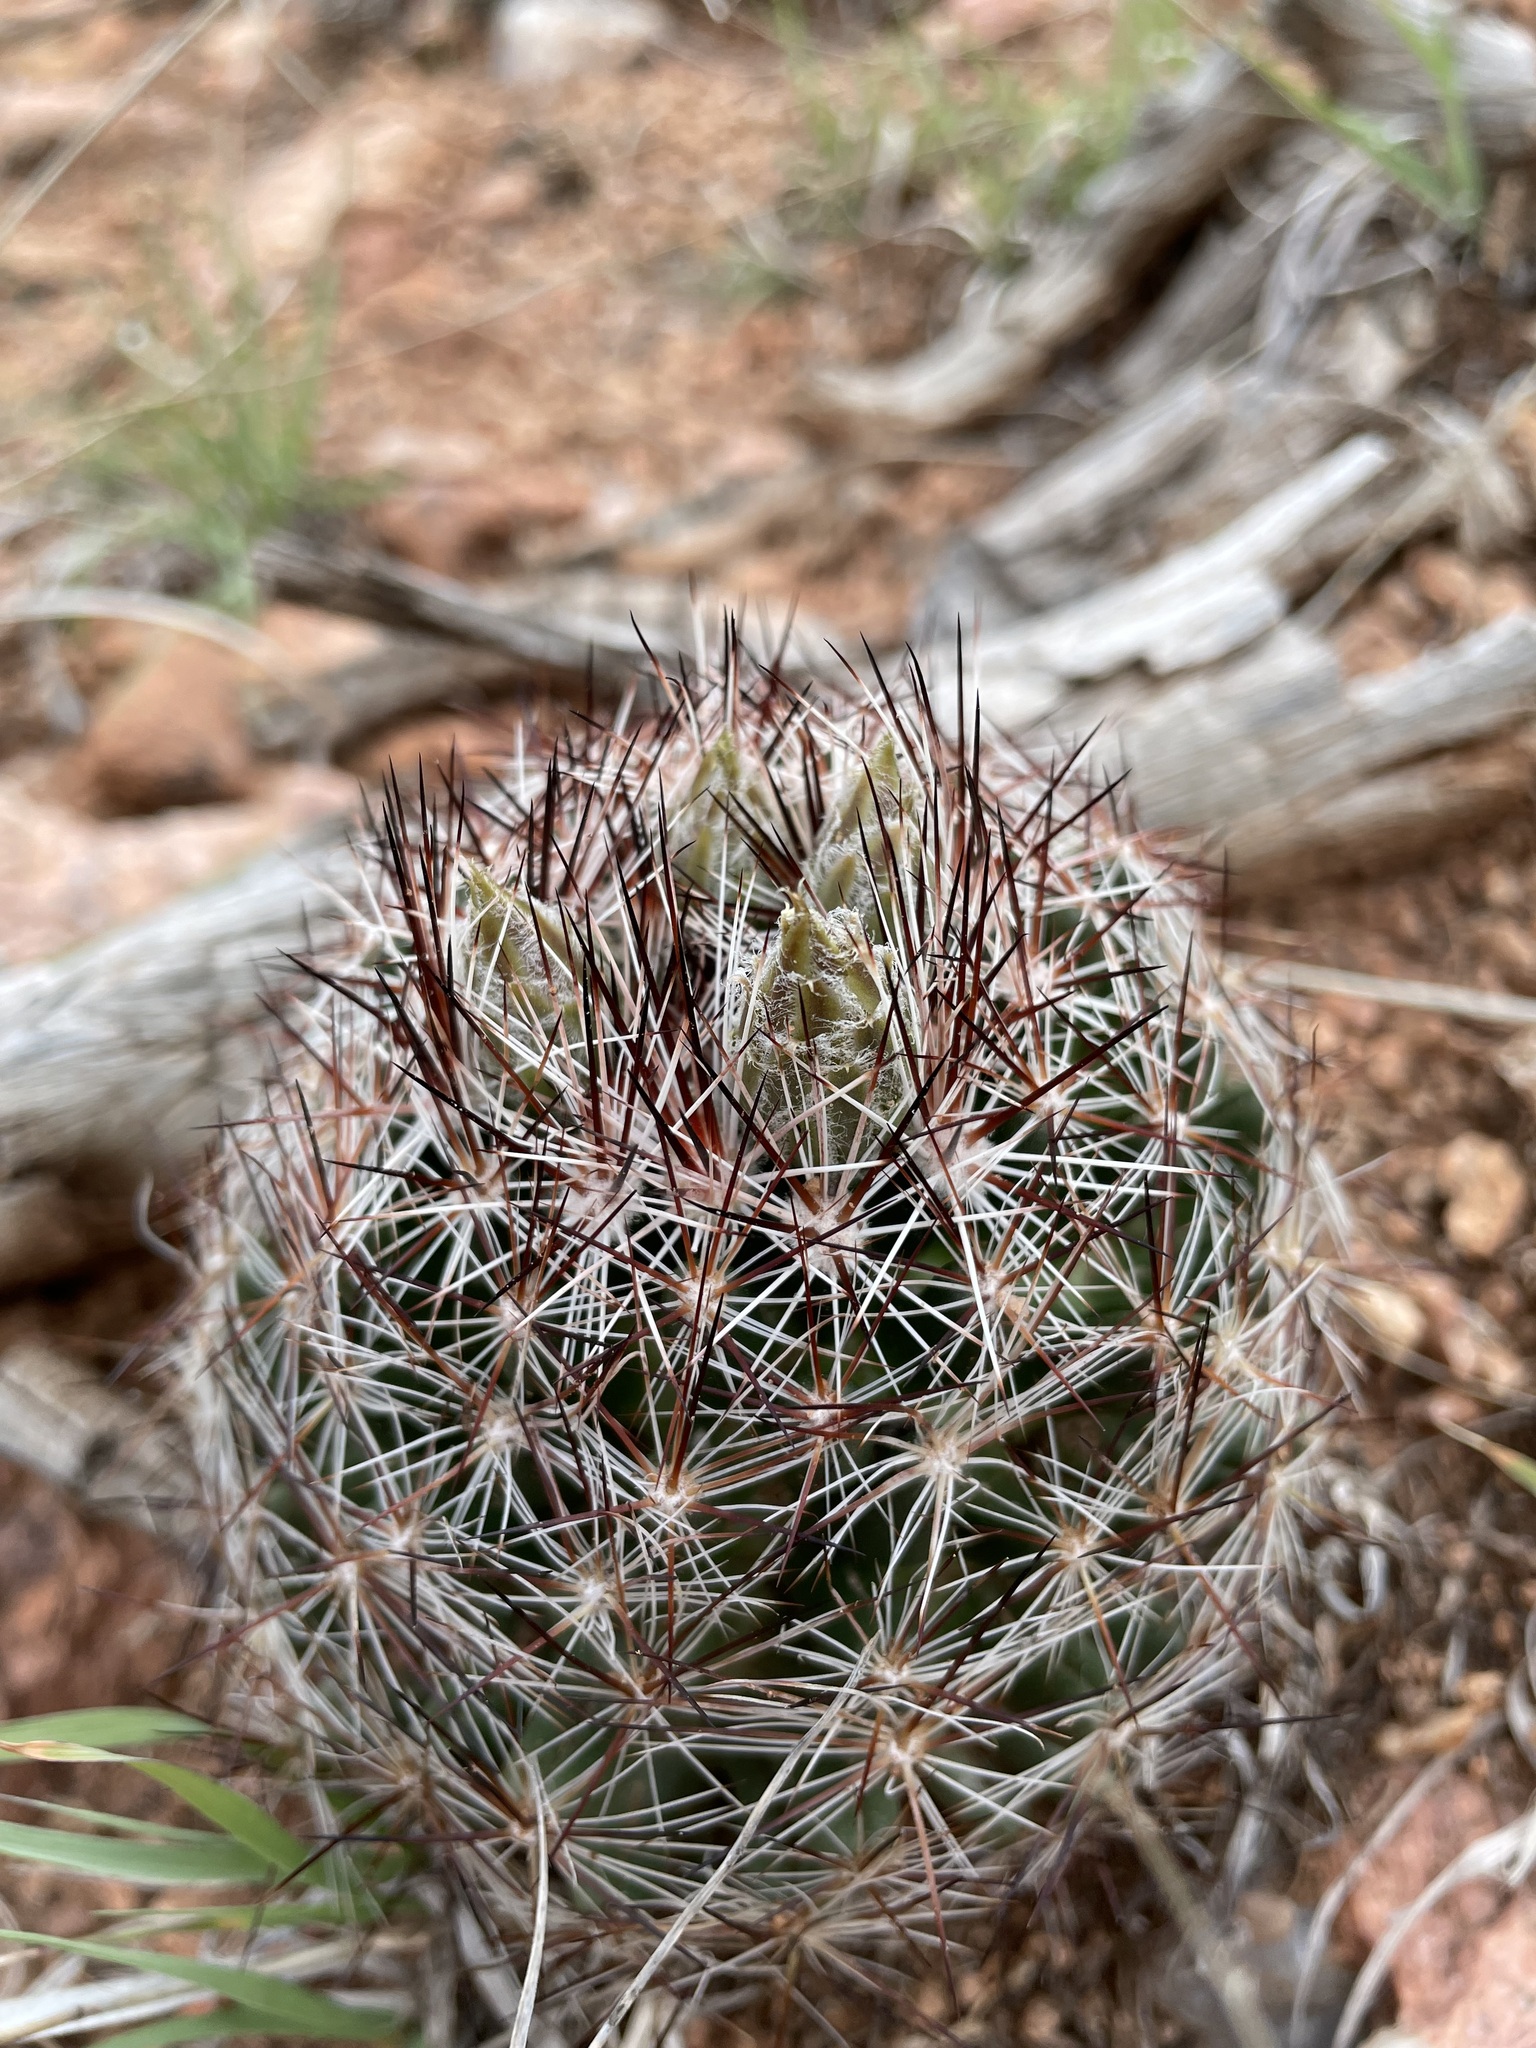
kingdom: Plantae
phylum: Tracheophyta
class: Magnoliopsida
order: Caryophyllales
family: Cactaceae
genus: Pelecyphora
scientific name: Pelecyphora vivipara
